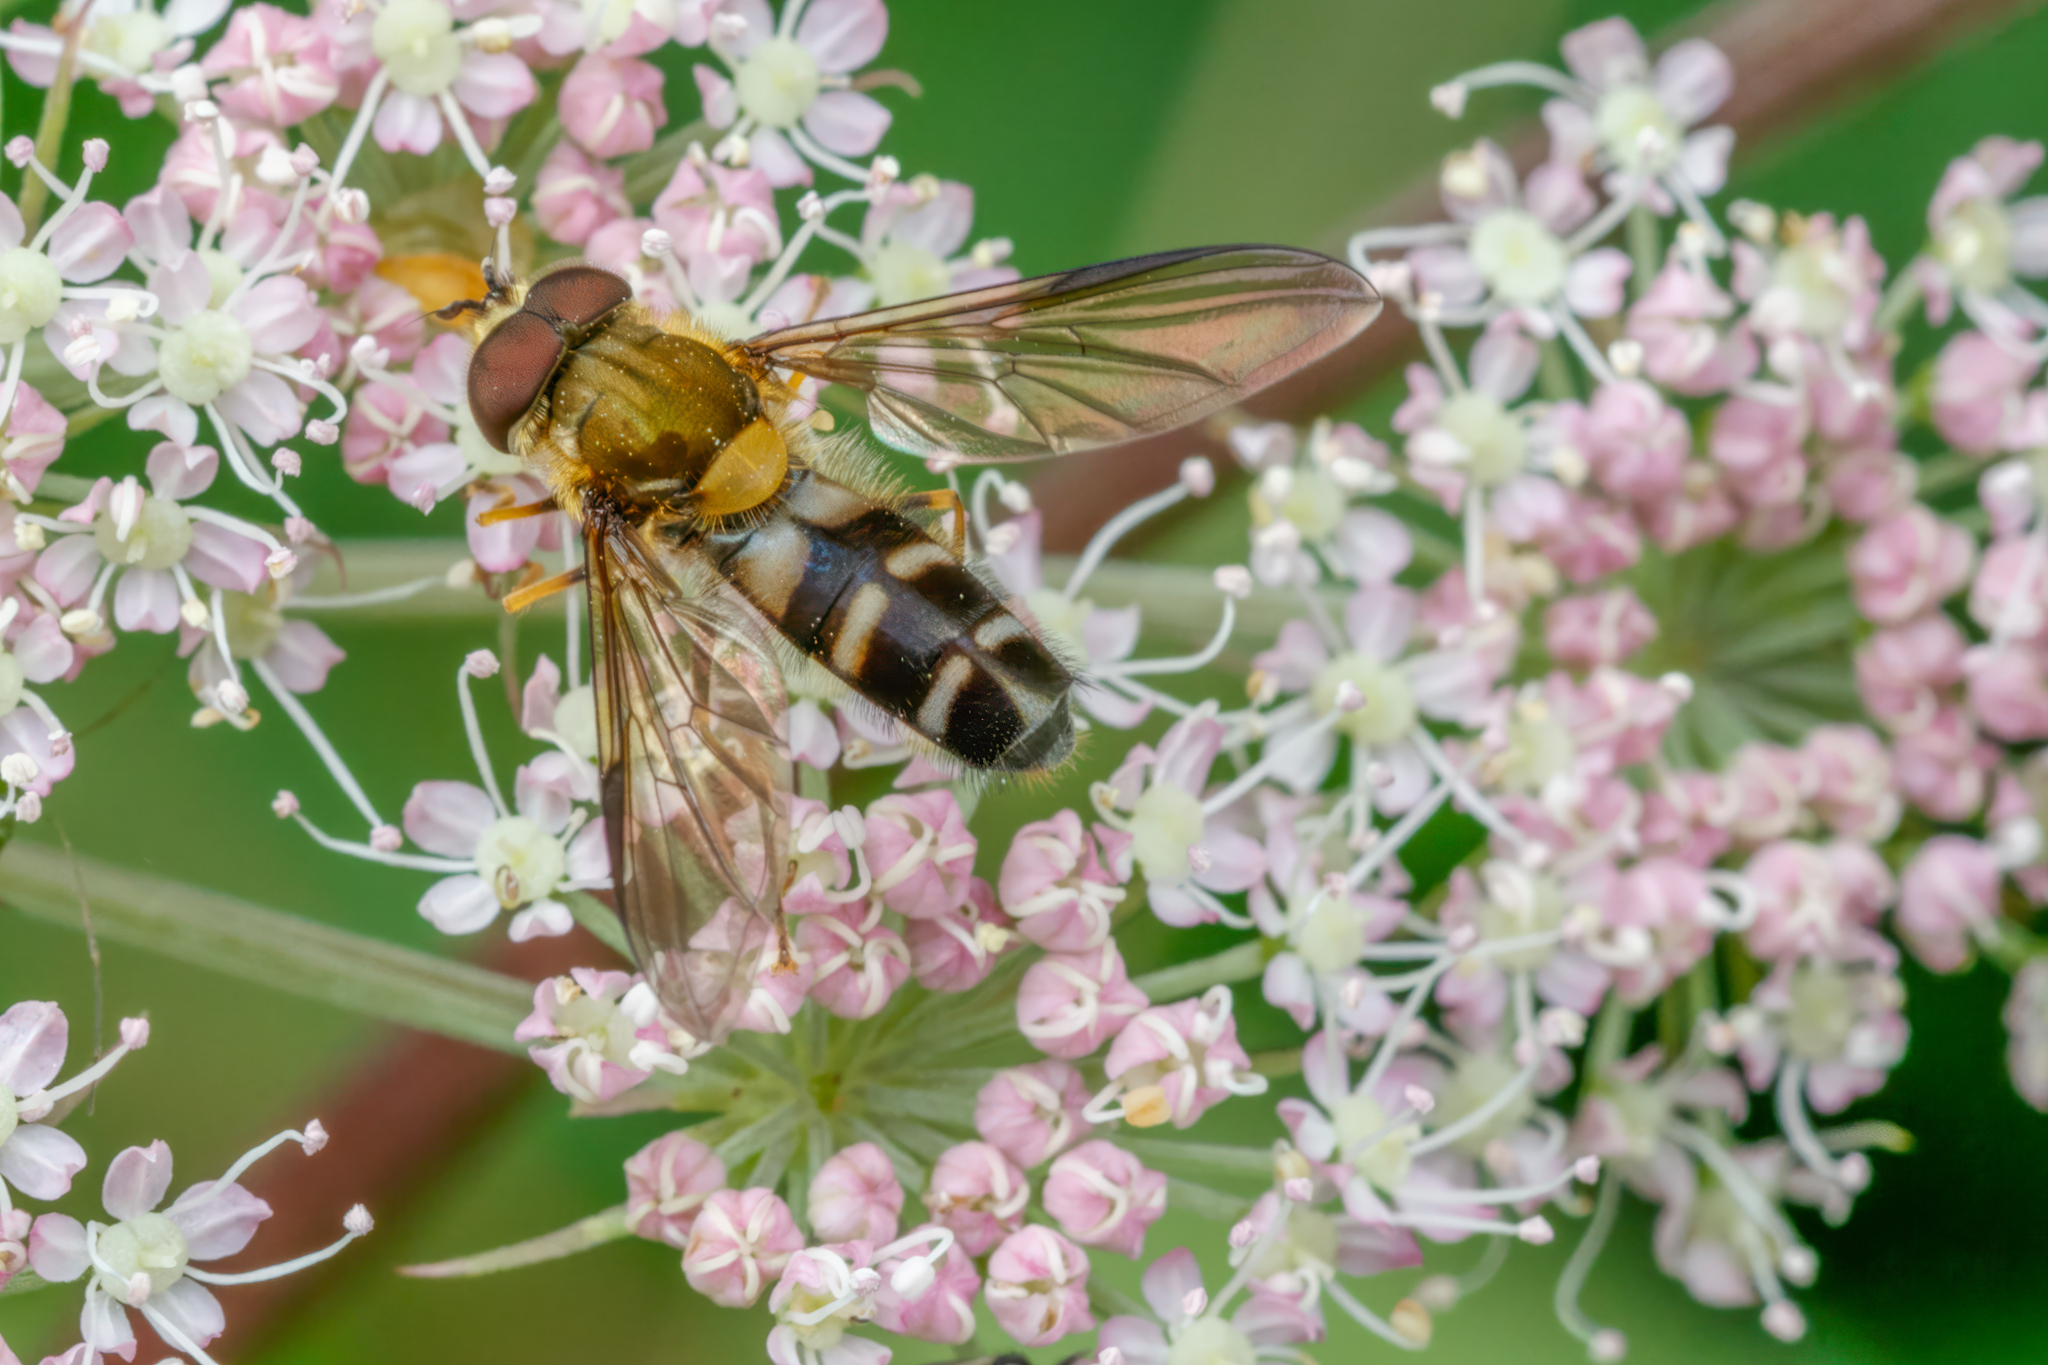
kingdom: Animalia
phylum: Arthropoda
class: Insecta
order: Diptera
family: Syrphidae
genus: Leucozona
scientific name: Leucozona glaucia
